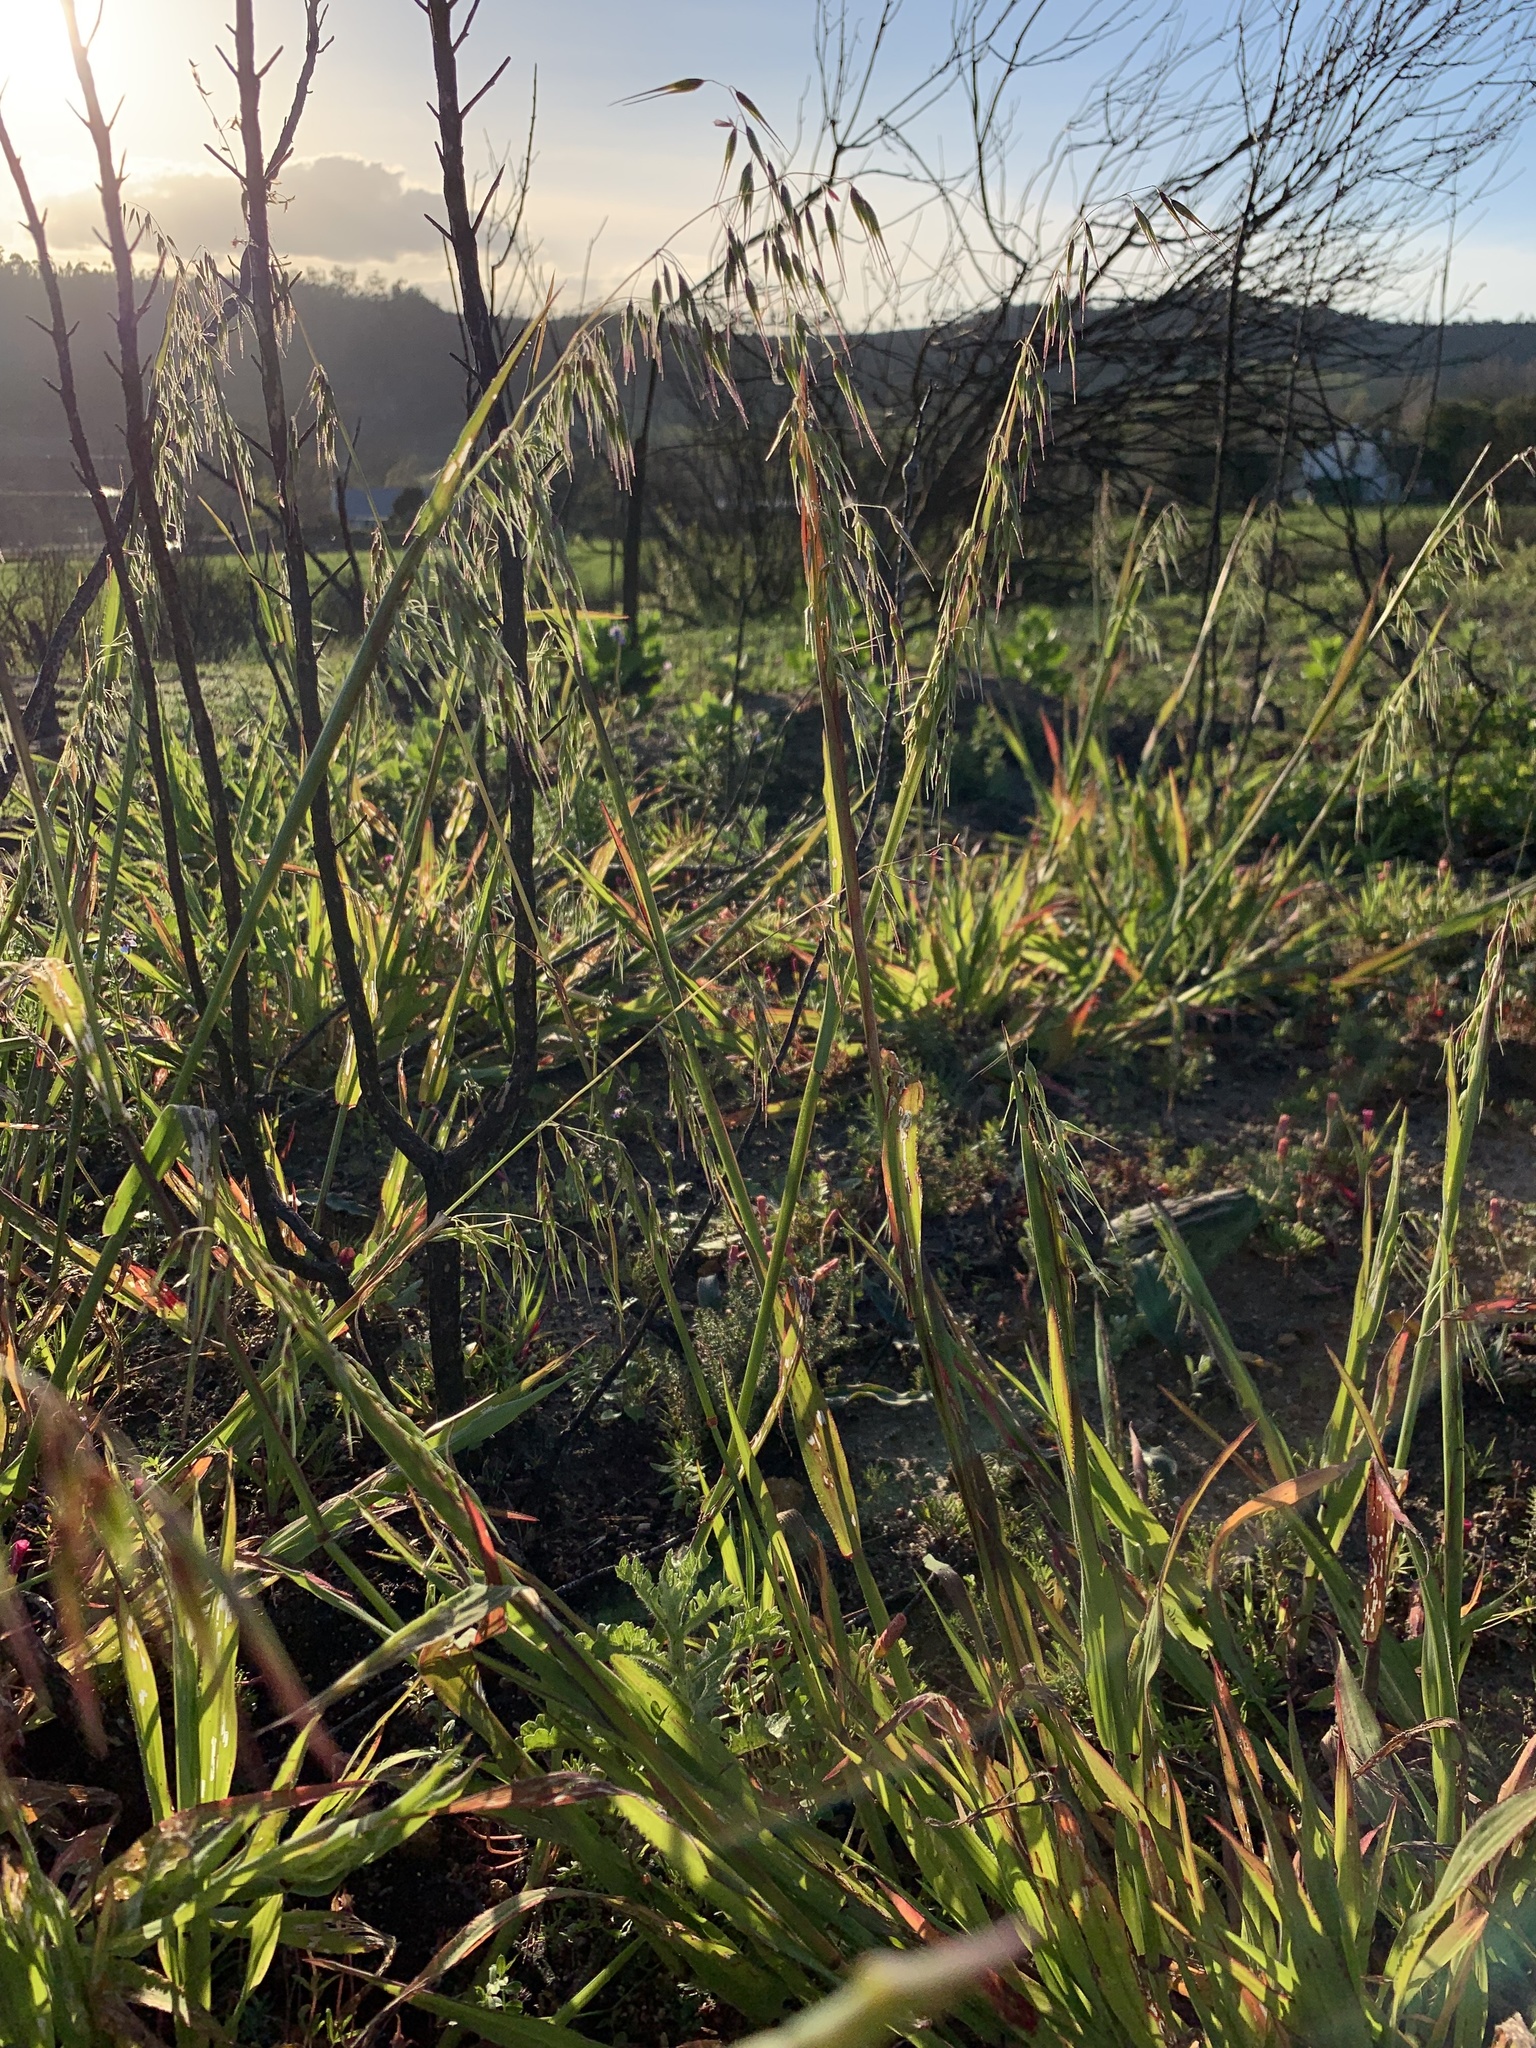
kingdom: Plantae
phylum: Tracheophyta
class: Liliopsida
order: Poales
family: Poaceae
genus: Ehrharta
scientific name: Ehrharta longiflora
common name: Longflowered veldtgrass
